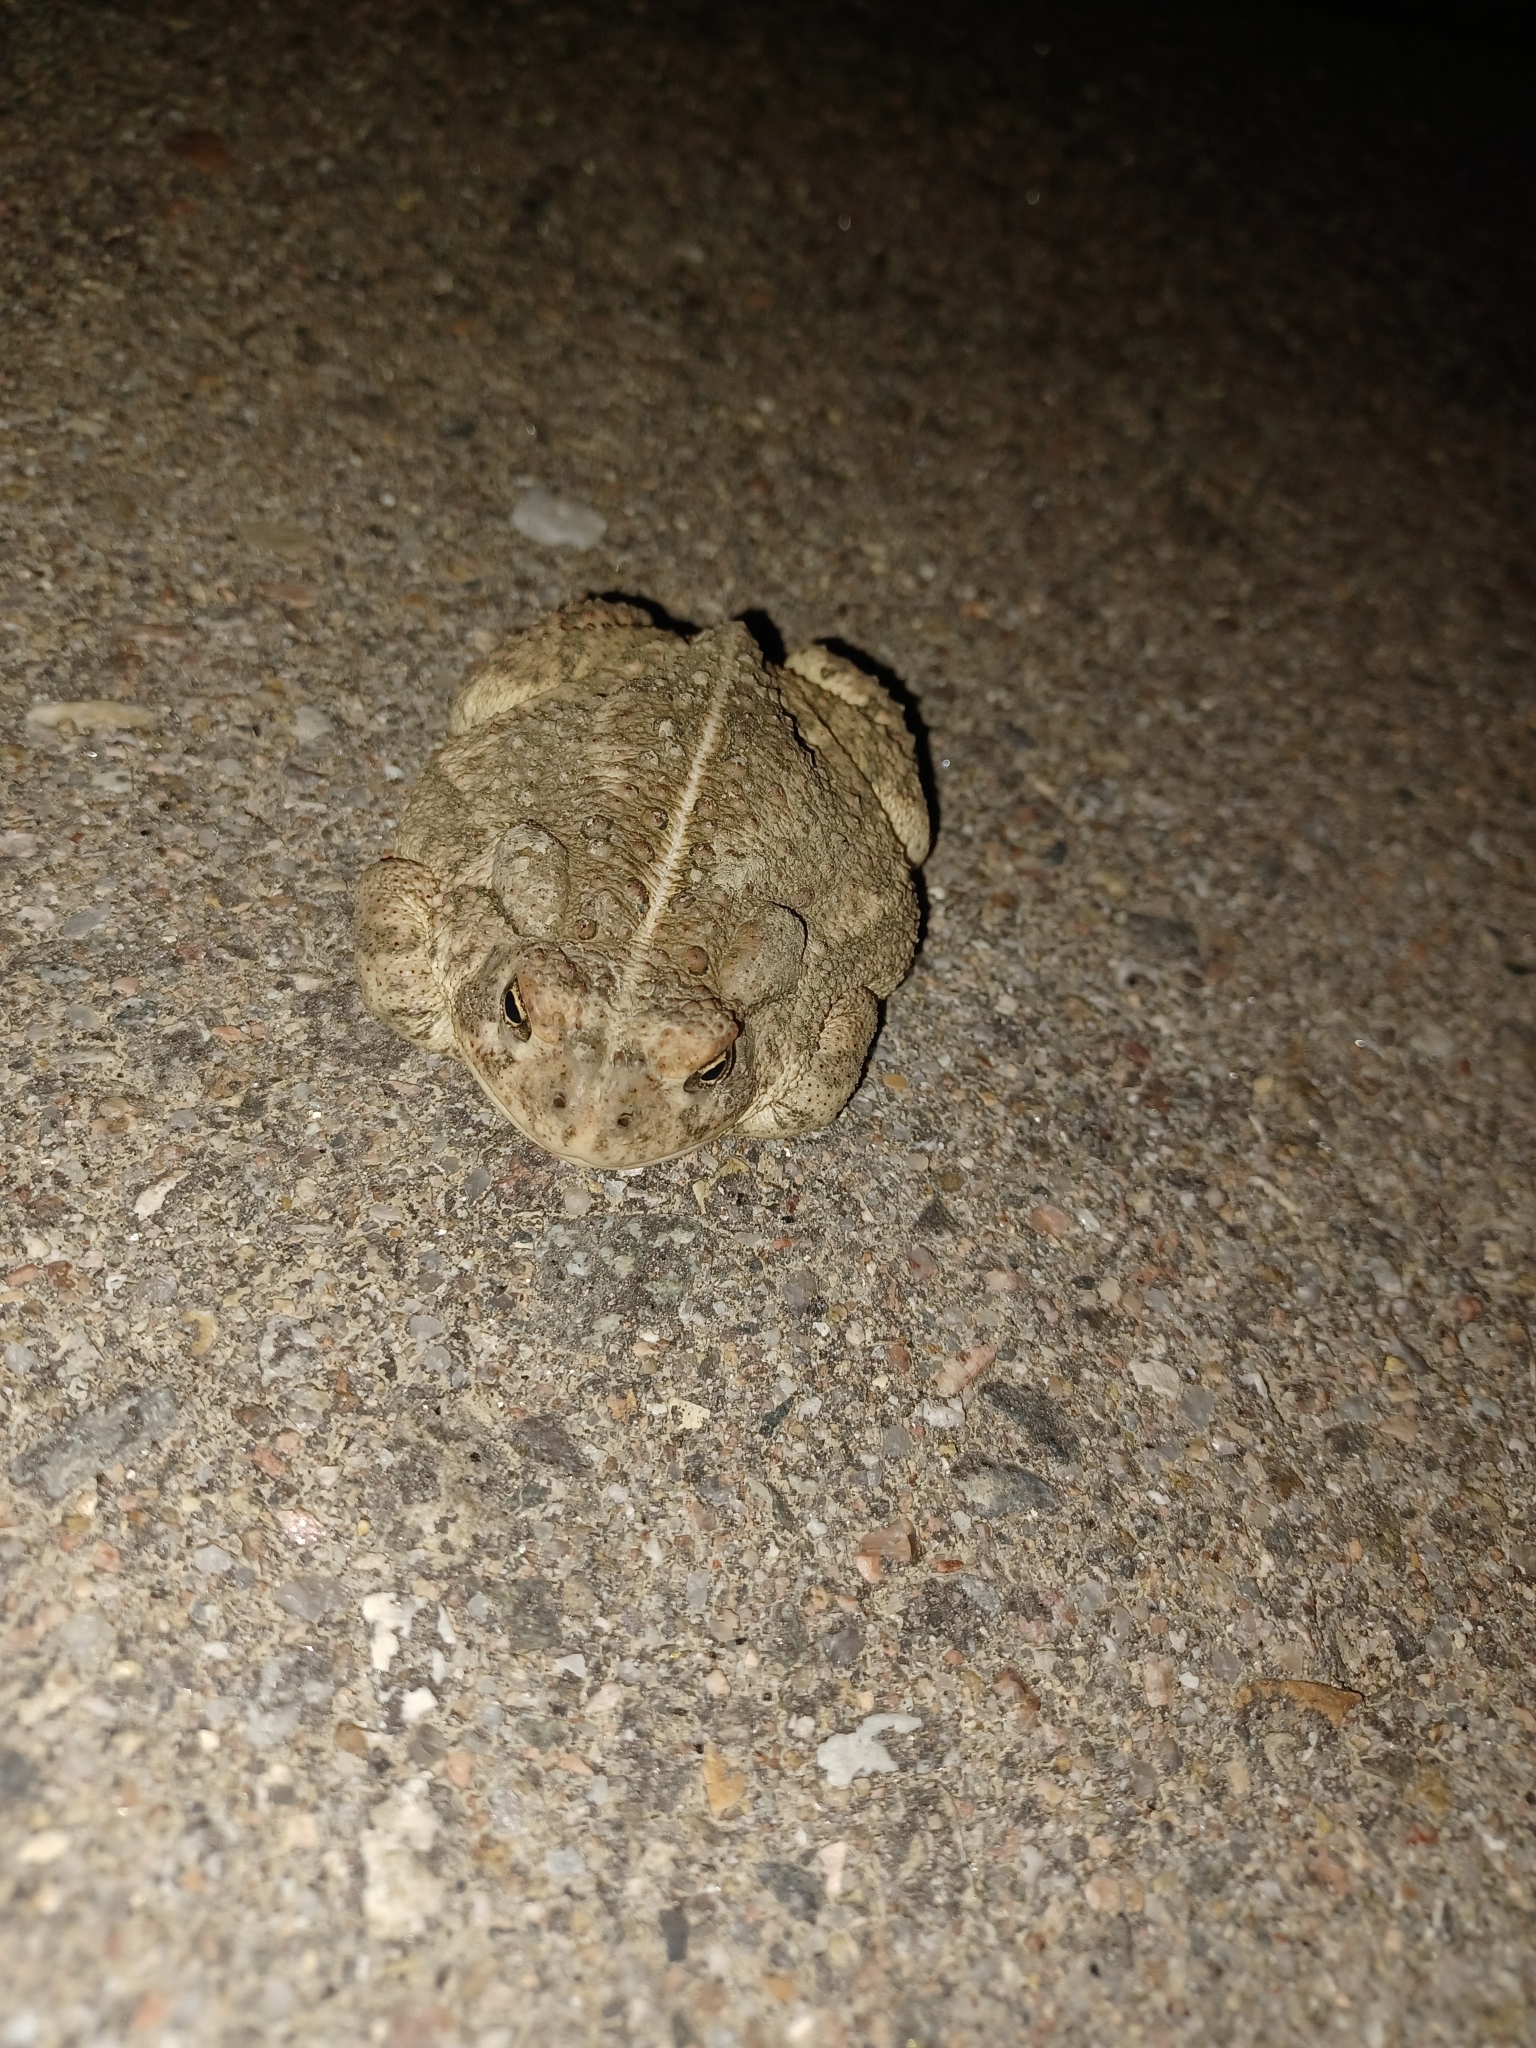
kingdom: Animalia
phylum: Chordata
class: Amphibia
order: Anura
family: Bufonidae
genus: Anaxyrus
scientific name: Anaxyrus woodhousii
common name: Woodhouse's toad
